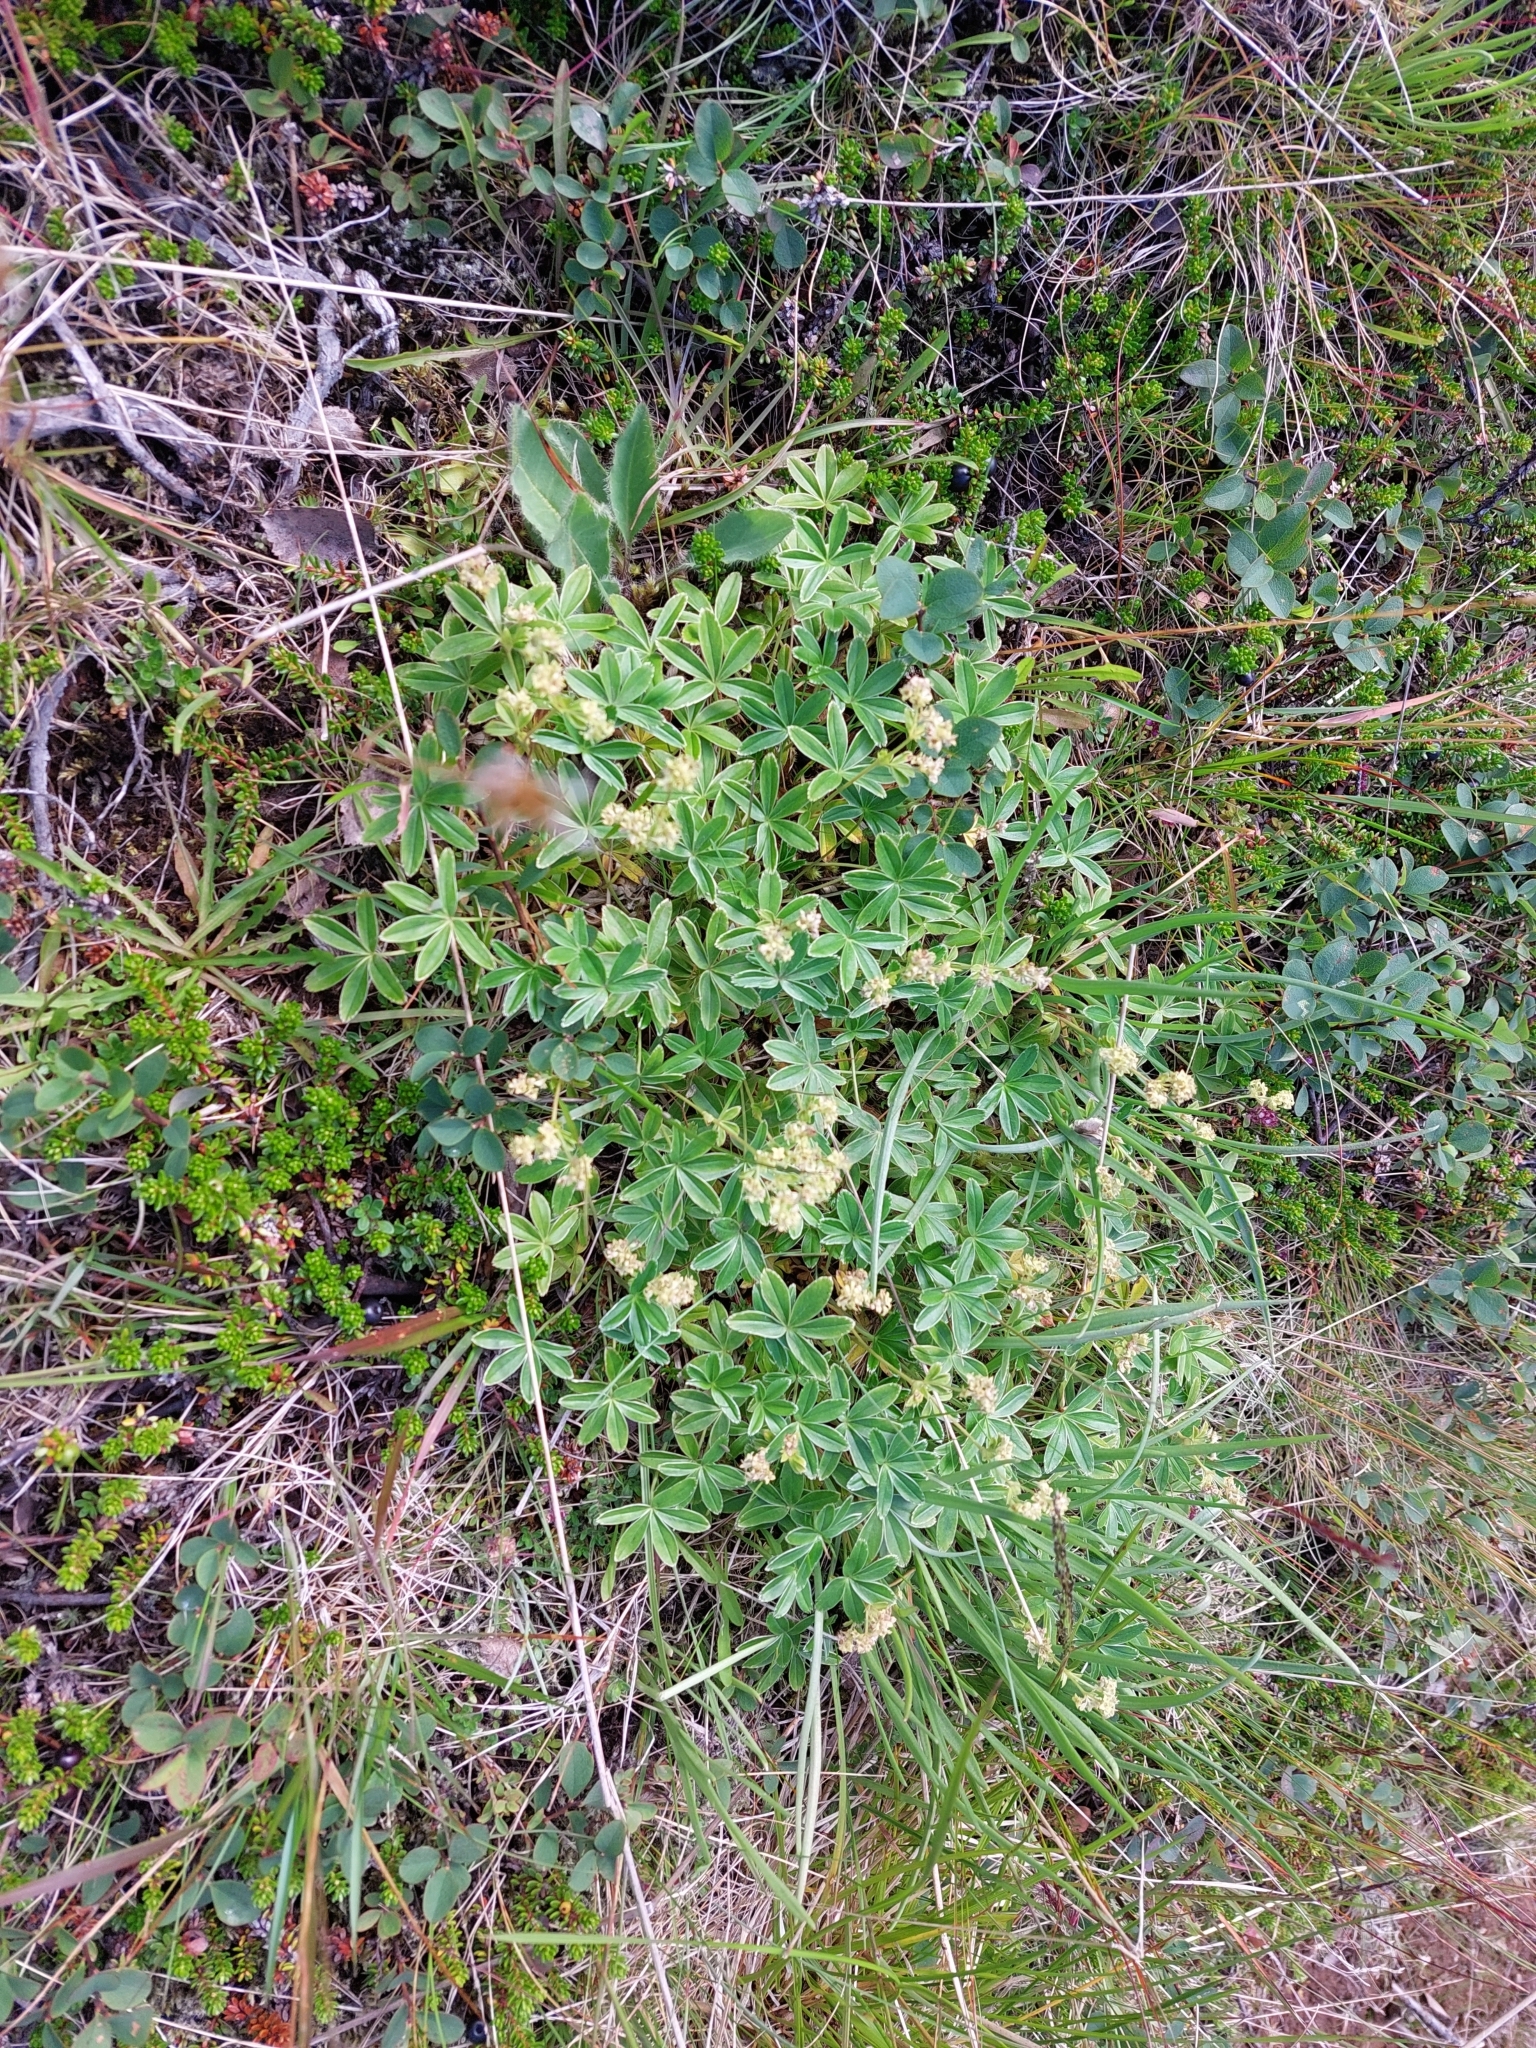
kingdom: Plantae
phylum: Tracheophyta
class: Magnoliopsida
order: Rosales
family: Rosaceae
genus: Alchemilla
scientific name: Alchemilla alpina
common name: Alpine lady's-mantle
